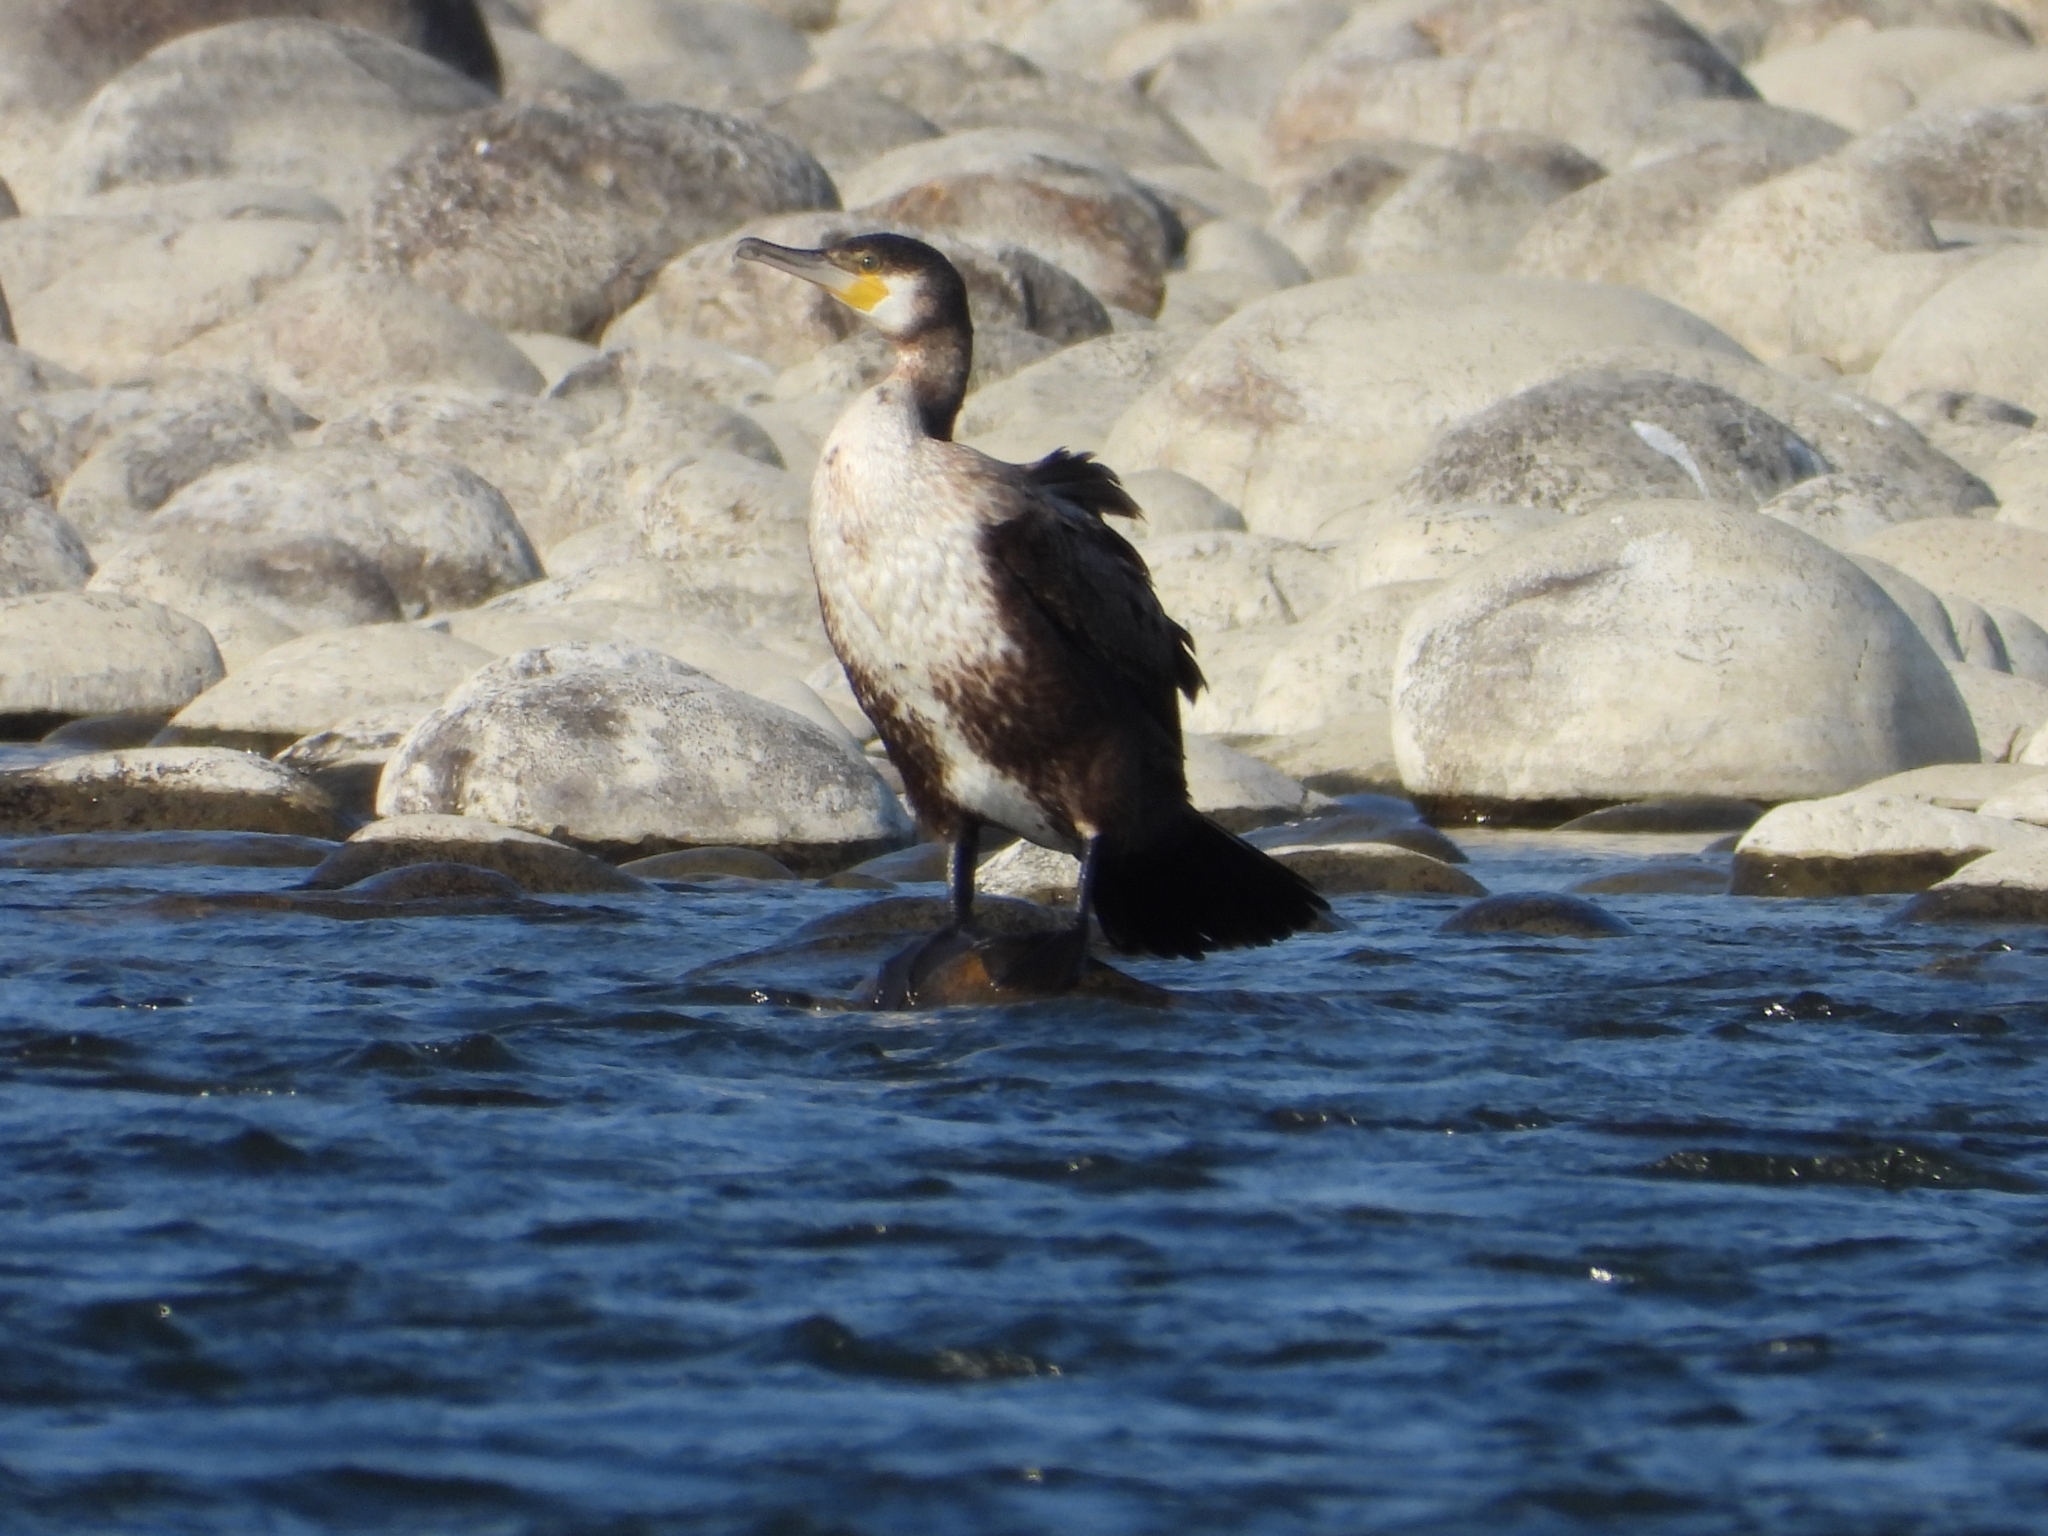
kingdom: Animalia
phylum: Chordata
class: Aves
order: Suliformes
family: Phalacrocoracidae
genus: Phalacrocorax
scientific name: Phalacrocorax carbo
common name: Great cormorant
